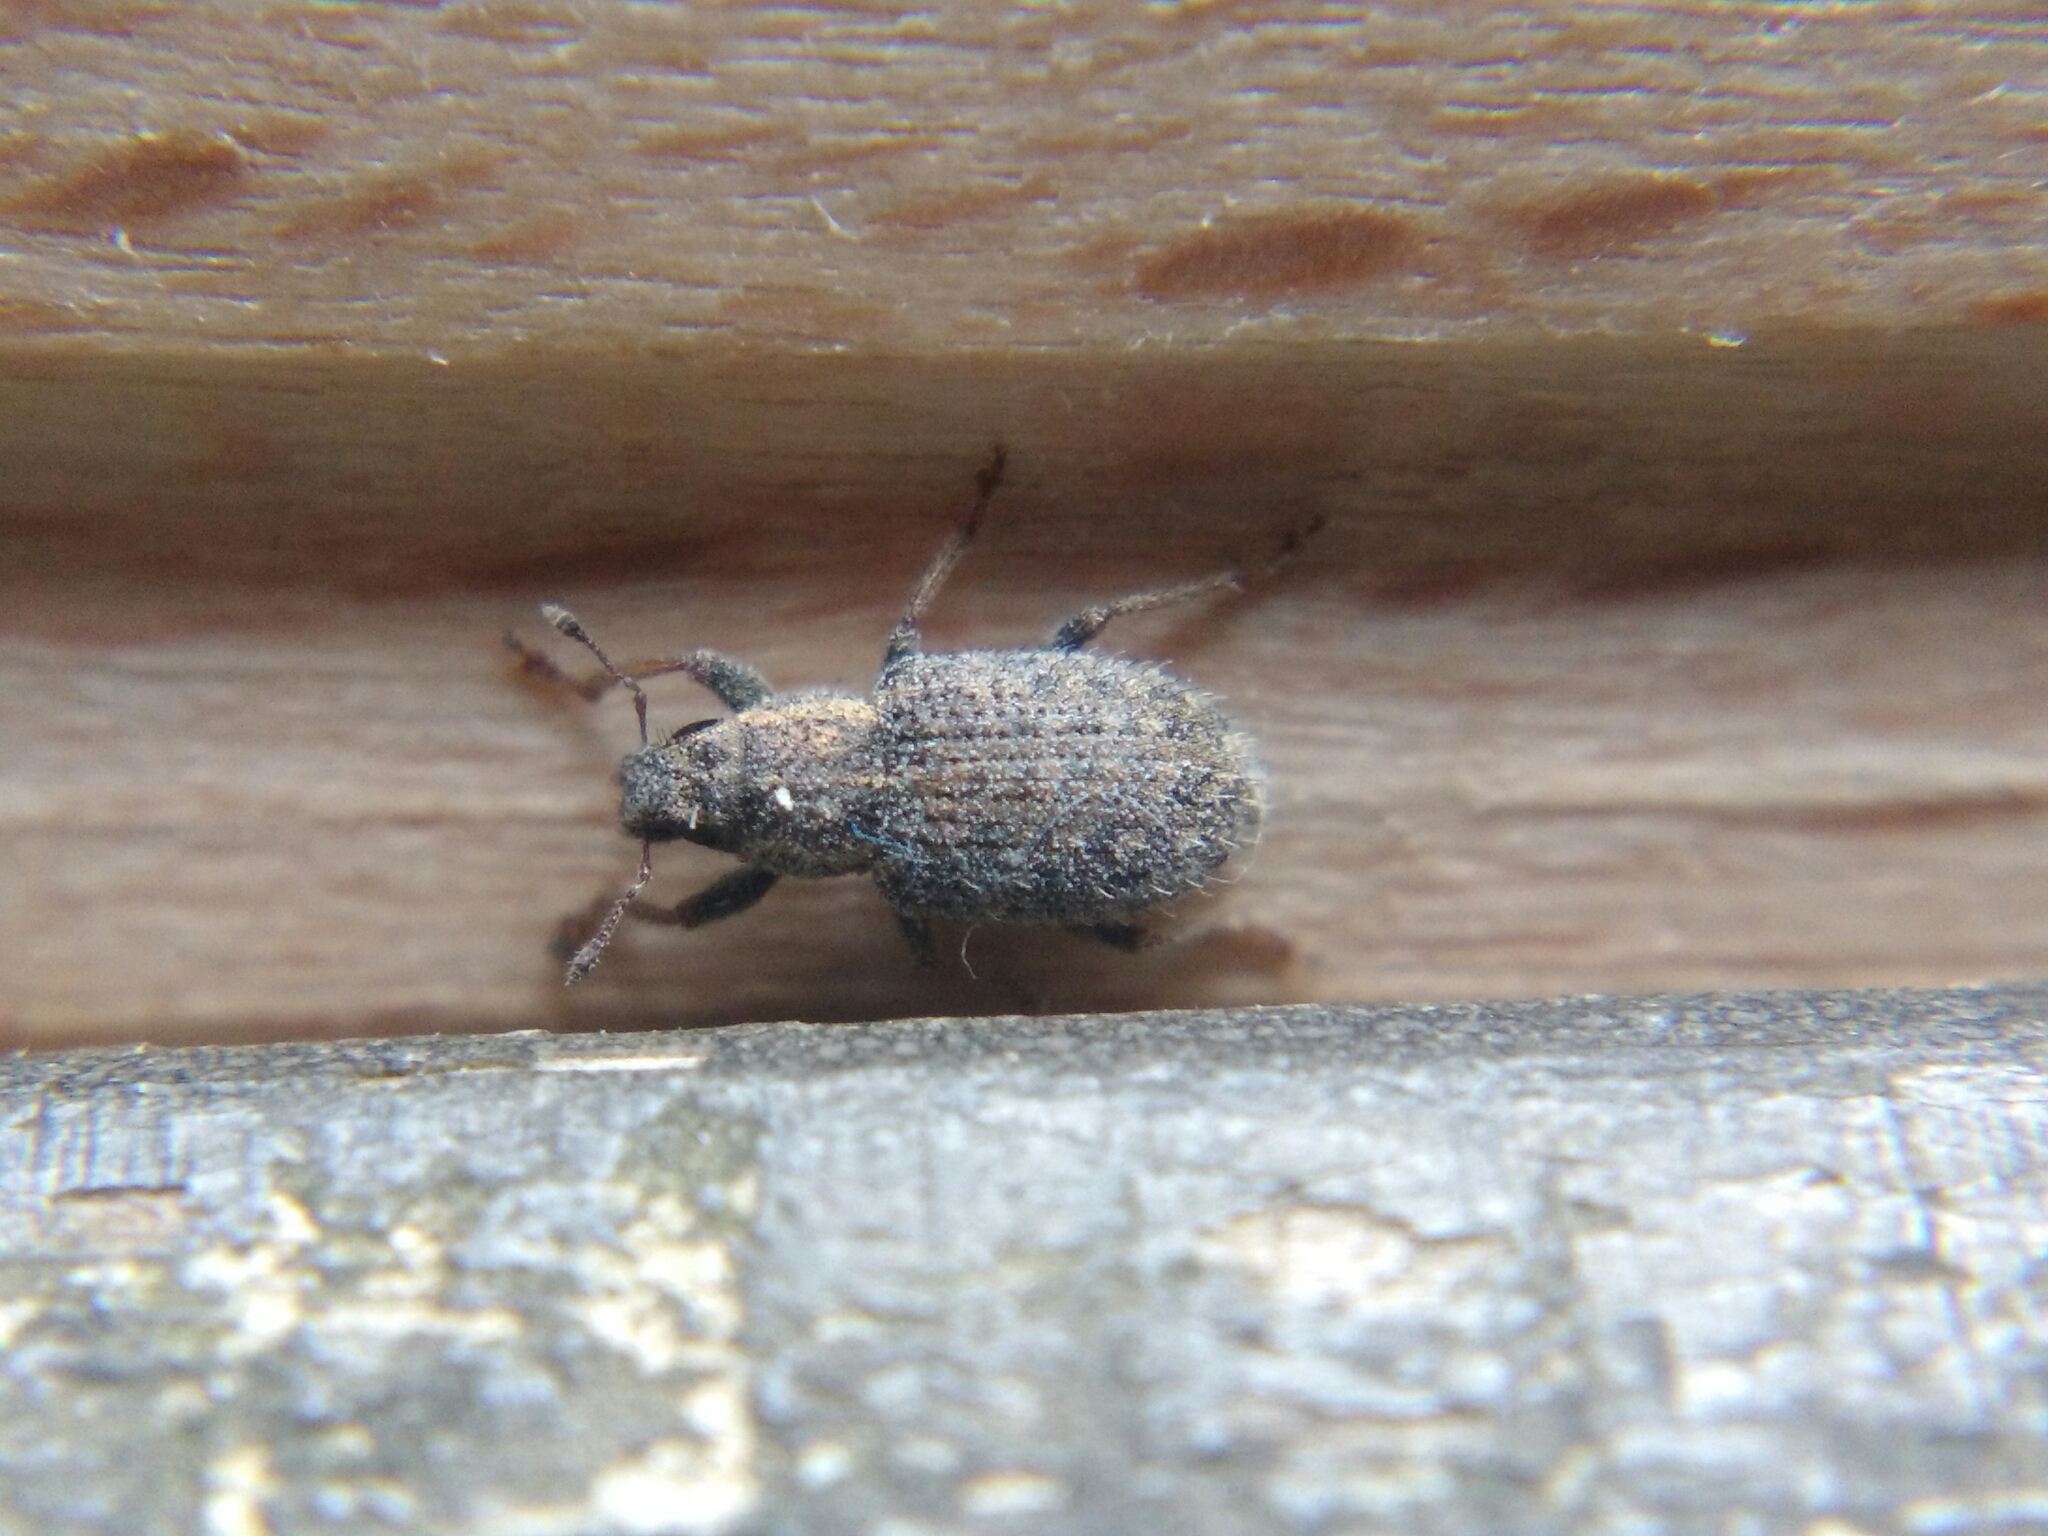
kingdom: Animalia
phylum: Arthropoda
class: Insecta
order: Coleoptera
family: Curculionidae
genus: Sitona
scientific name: Sitona hispidulus
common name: Clover weevil
